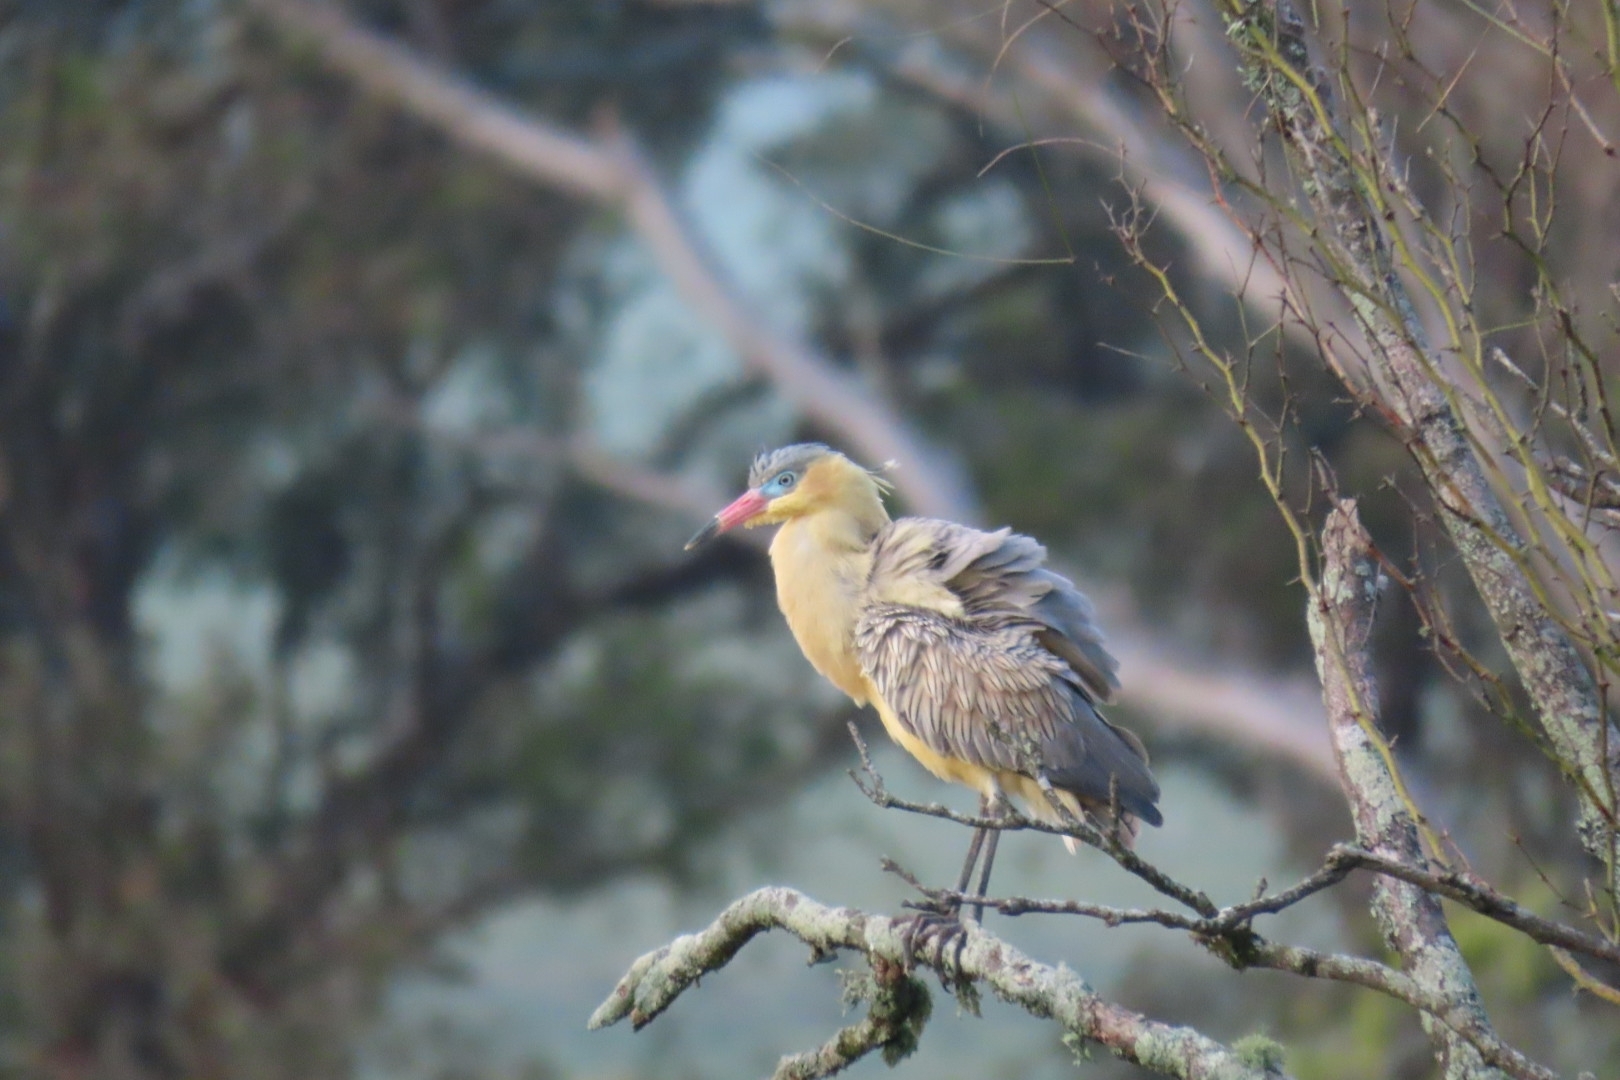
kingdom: Animalia
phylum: Chordata
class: Aves
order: Pelecaniformes
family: Ardeidae
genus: Syrigma
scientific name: Syrigma sibilatrix
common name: Whistling heron
